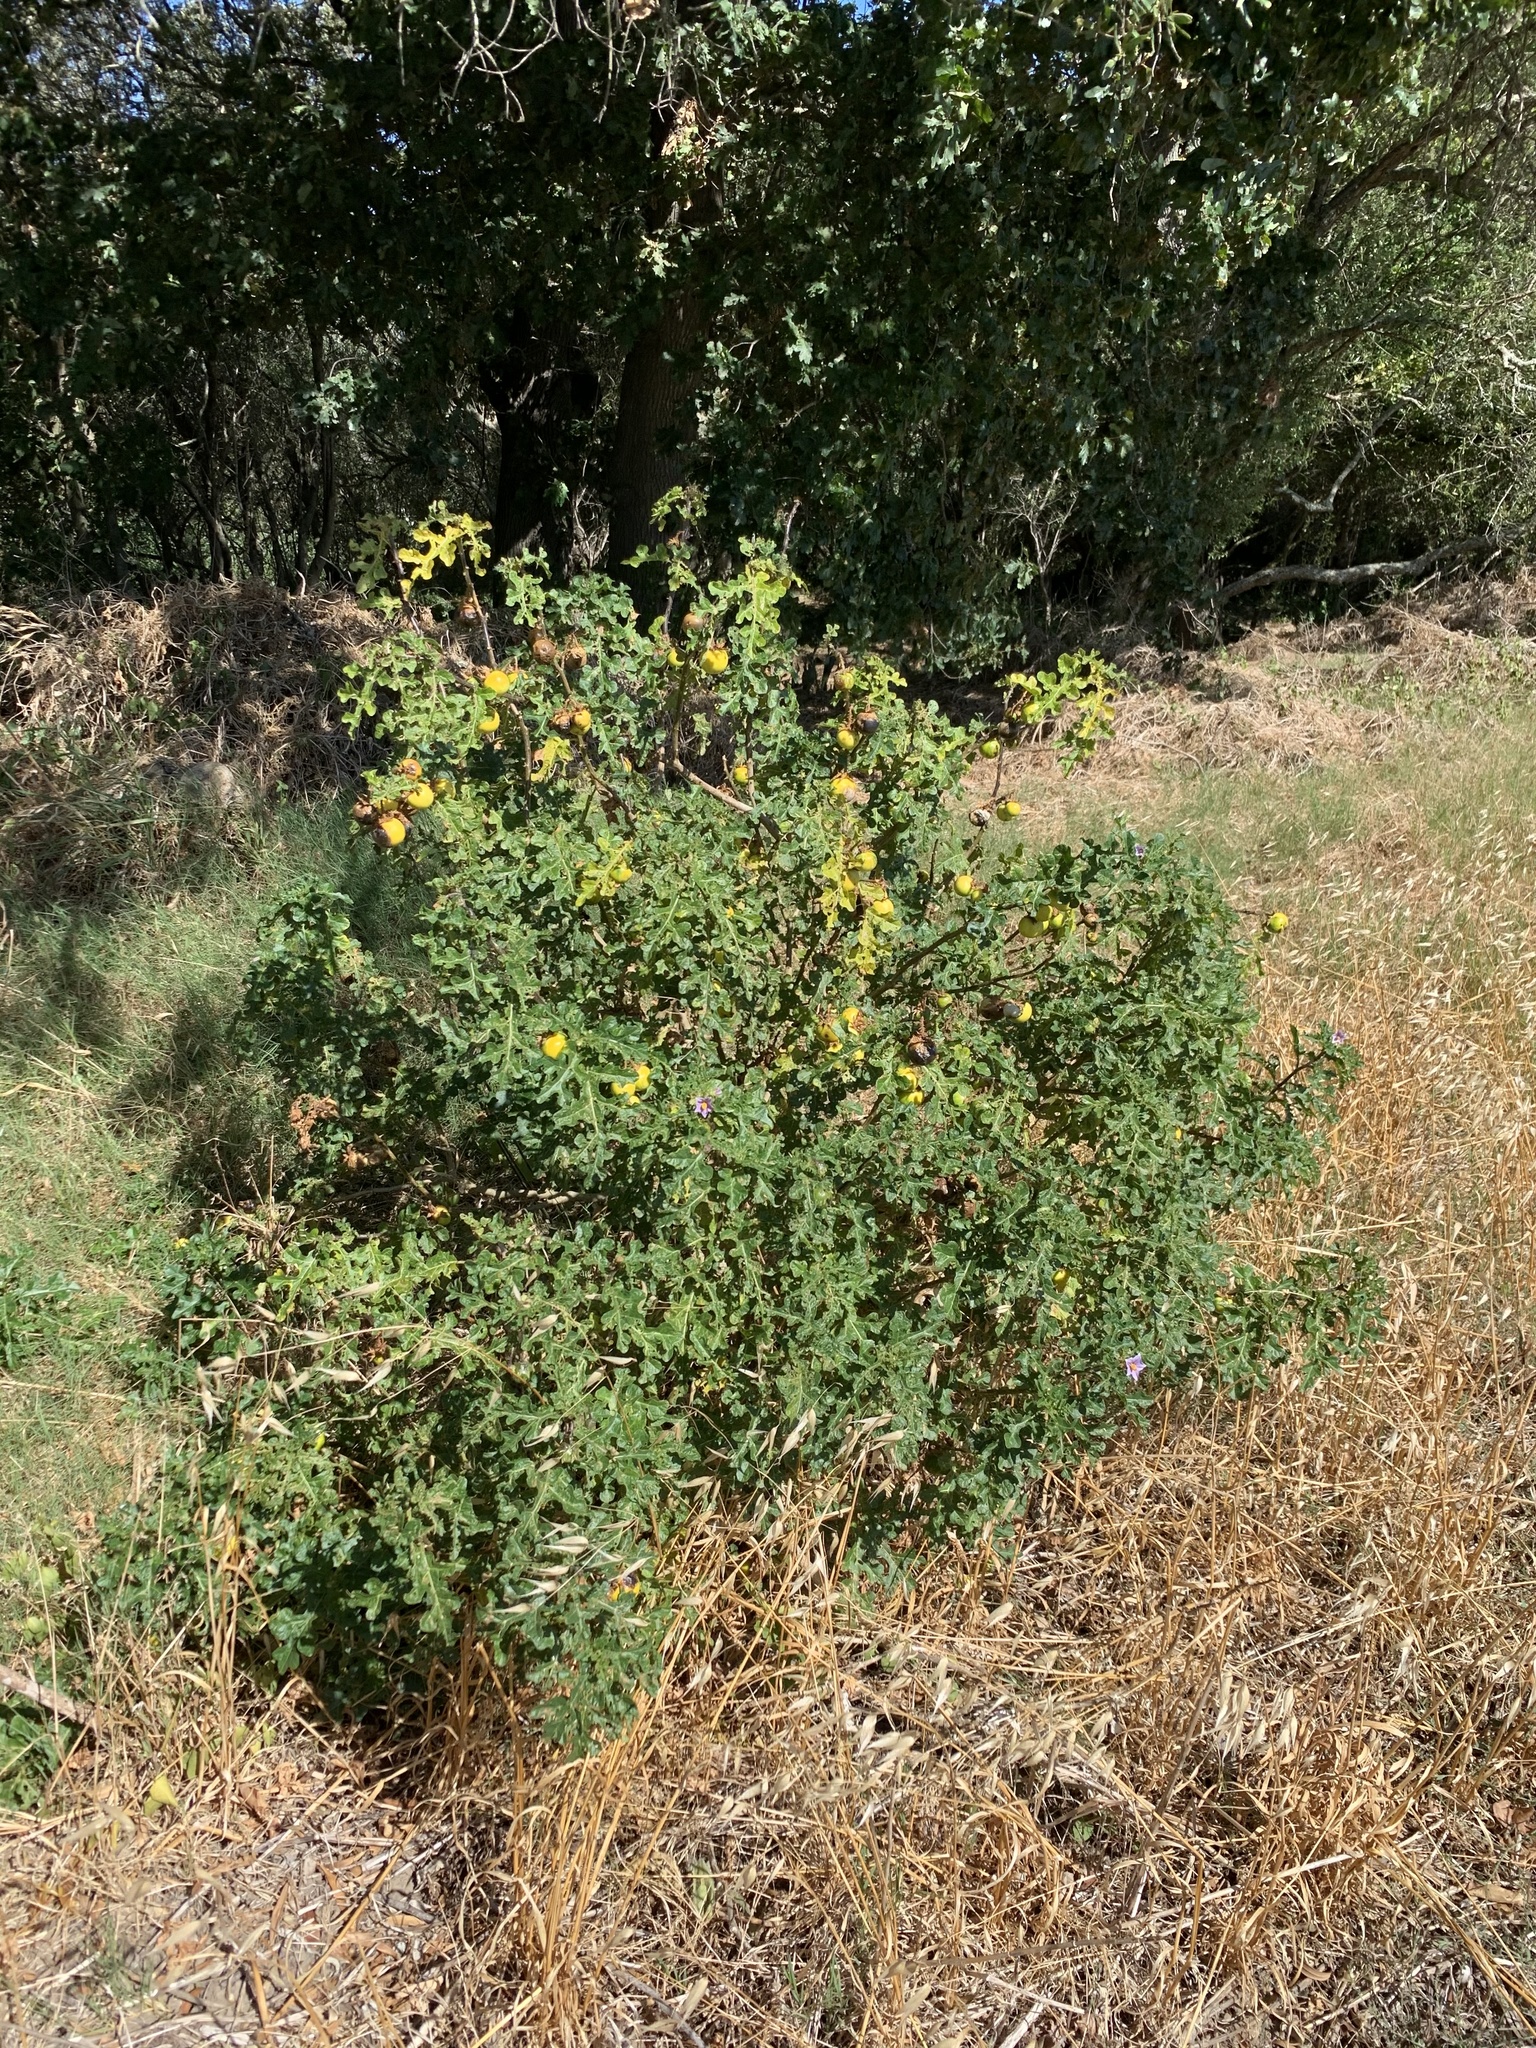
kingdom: Plantae
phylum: Tracheophyta
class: Magnoliopsida
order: Solanales
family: Solanaceae
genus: Solanum
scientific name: Solanum linnaeanum
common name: Nightshade
